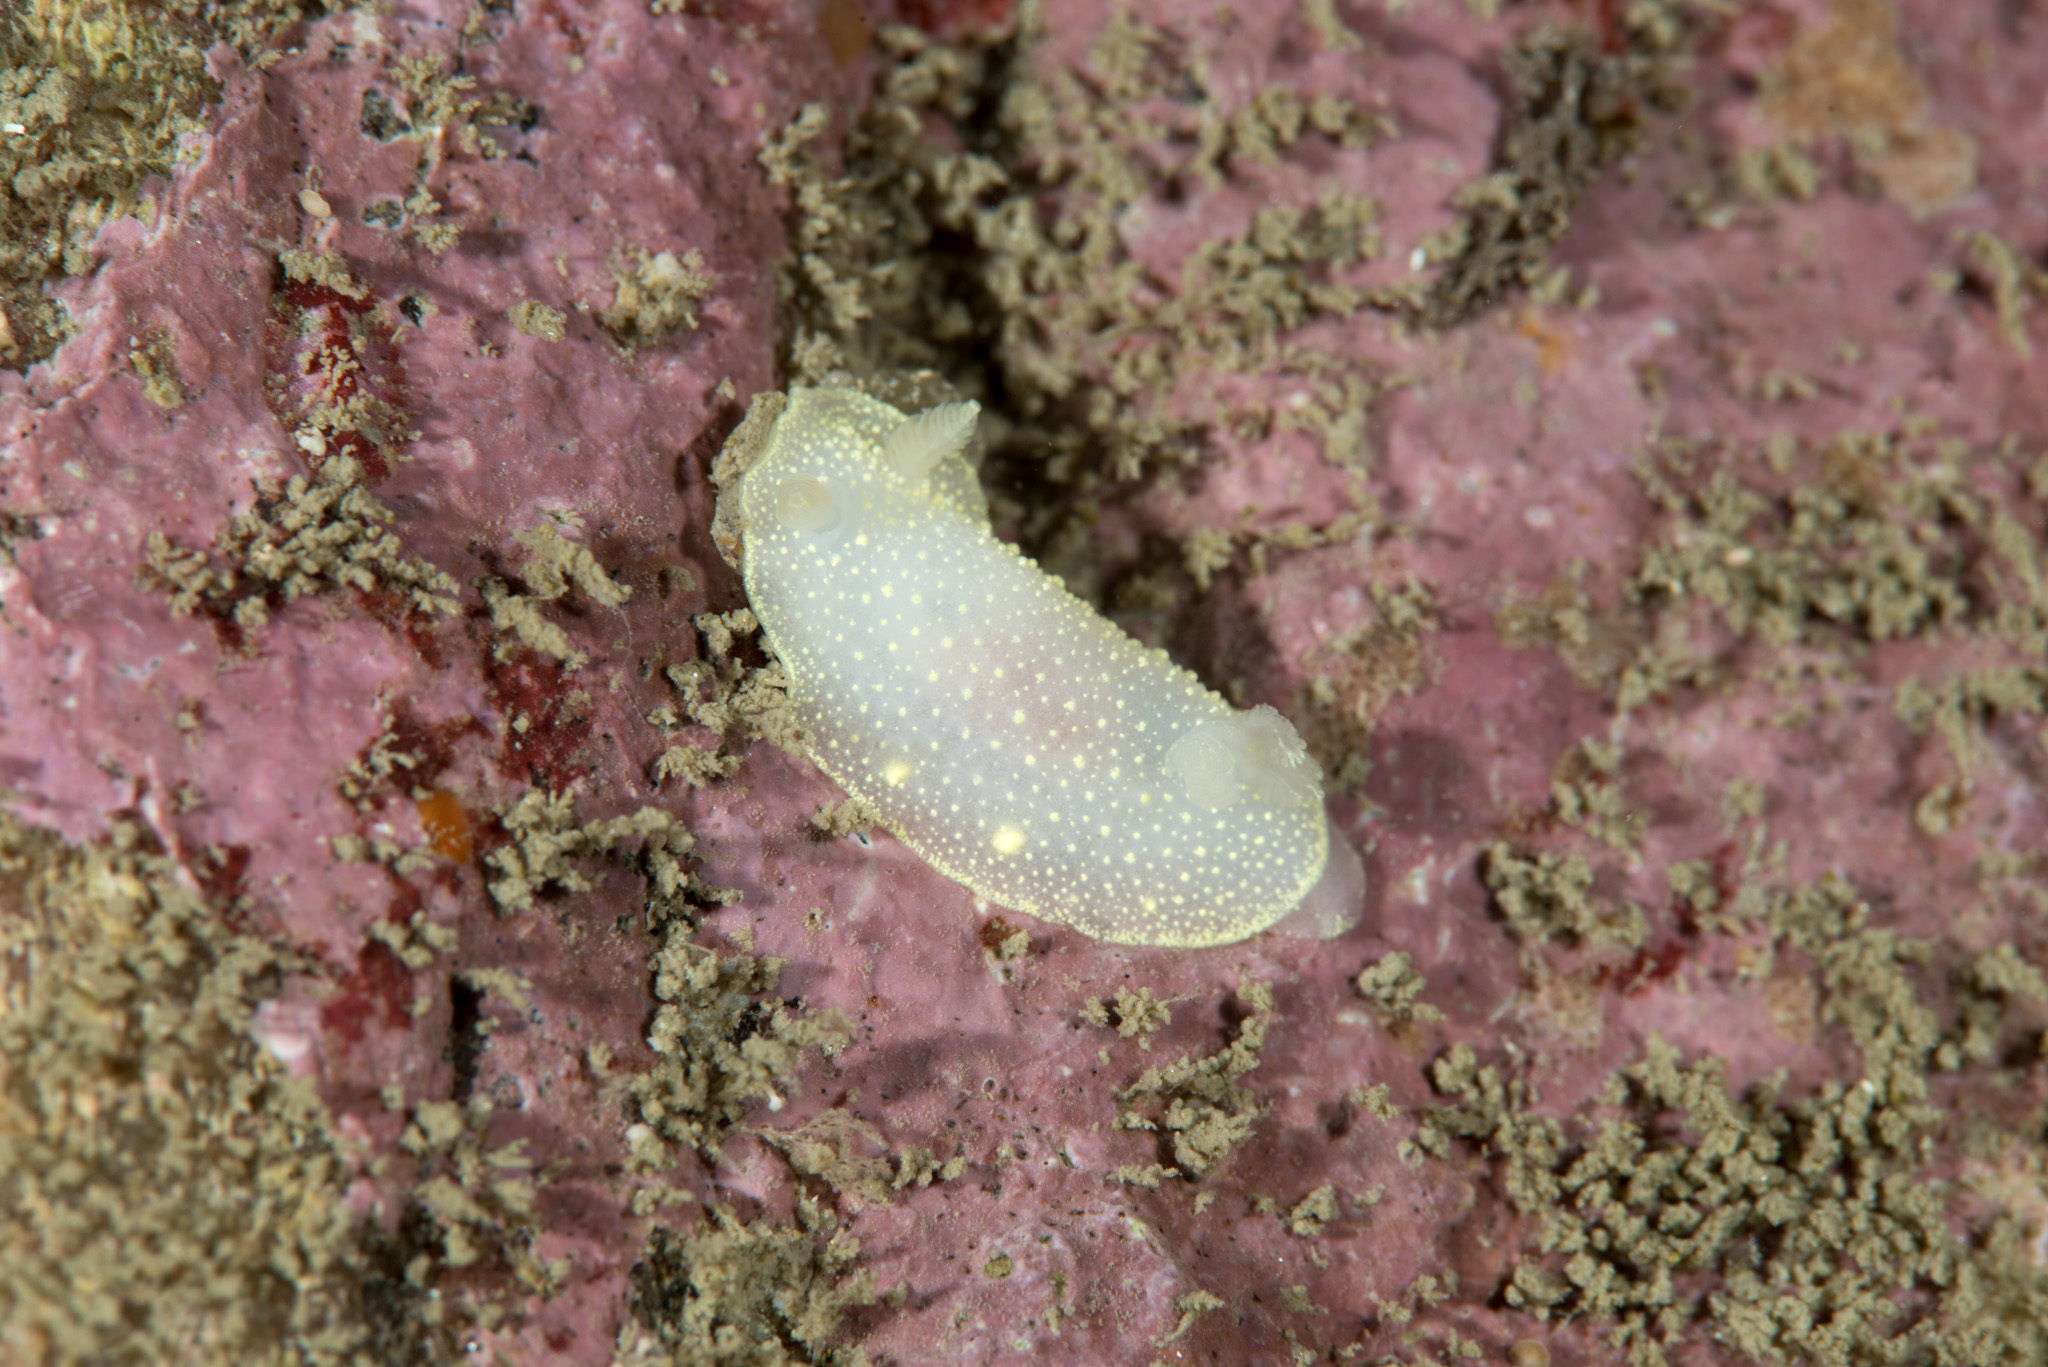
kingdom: Animalia
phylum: Mollusca
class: Gastropoda
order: Nudibranchia
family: Cadlinidae
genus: Cadlina
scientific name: Cadlina laevis
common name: White atlantic cadlina
